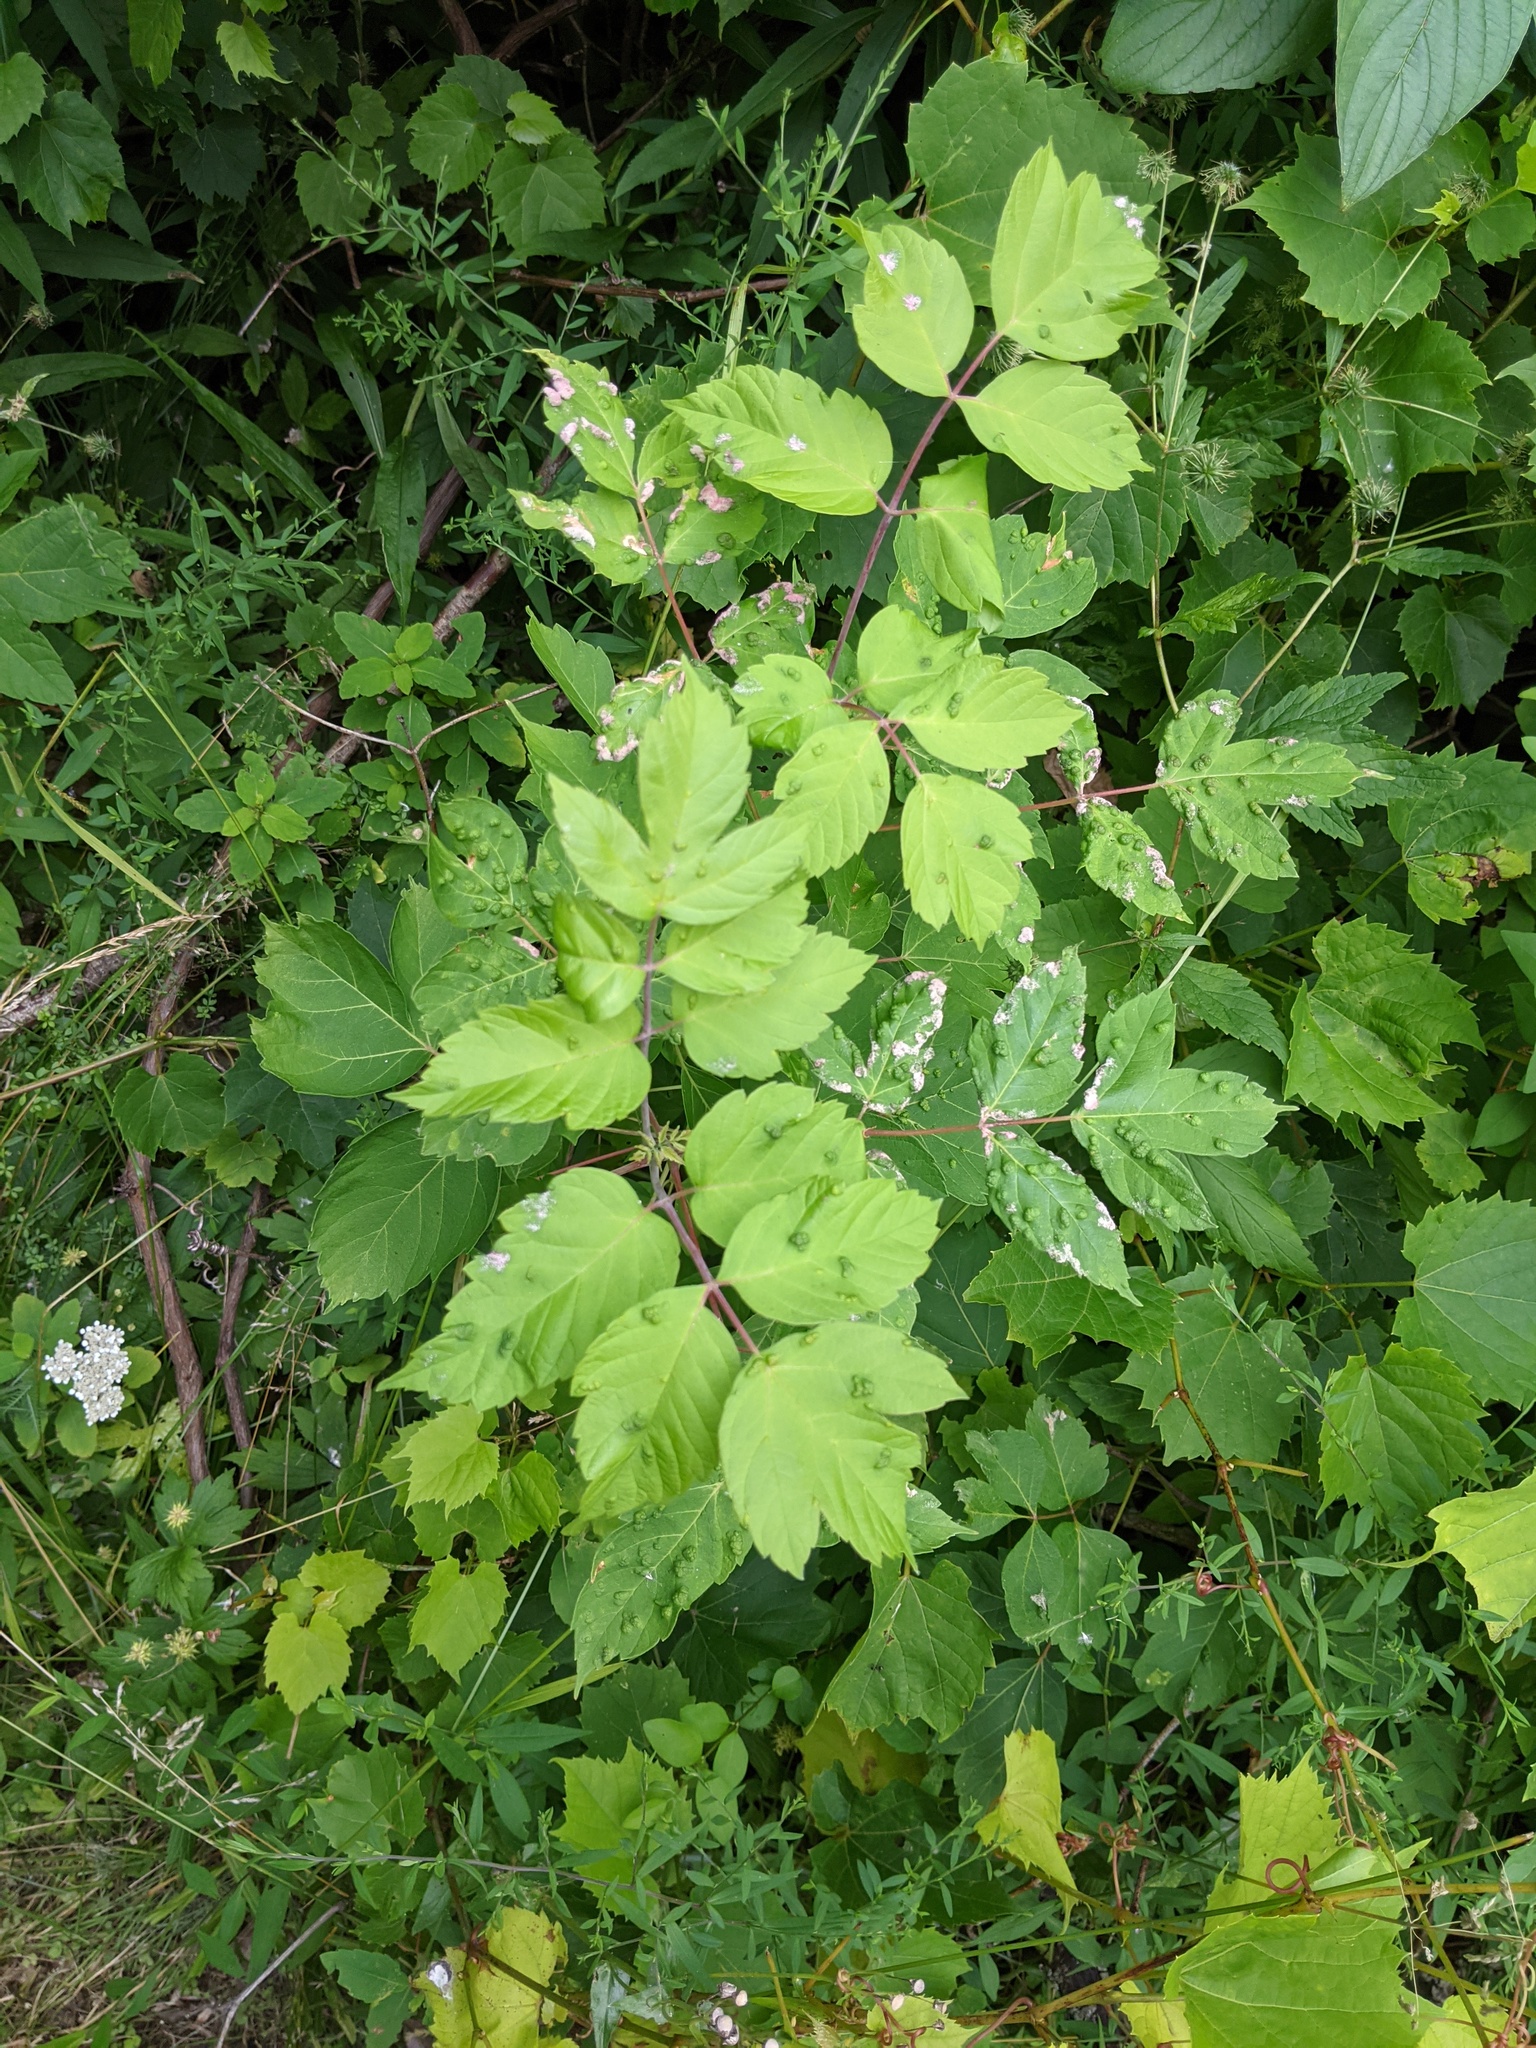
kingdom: Animalia
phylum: Arthropoda
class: Arachnida
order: Trombidiformes
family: Eriophyidae
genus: Aceria
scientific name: Aceria
